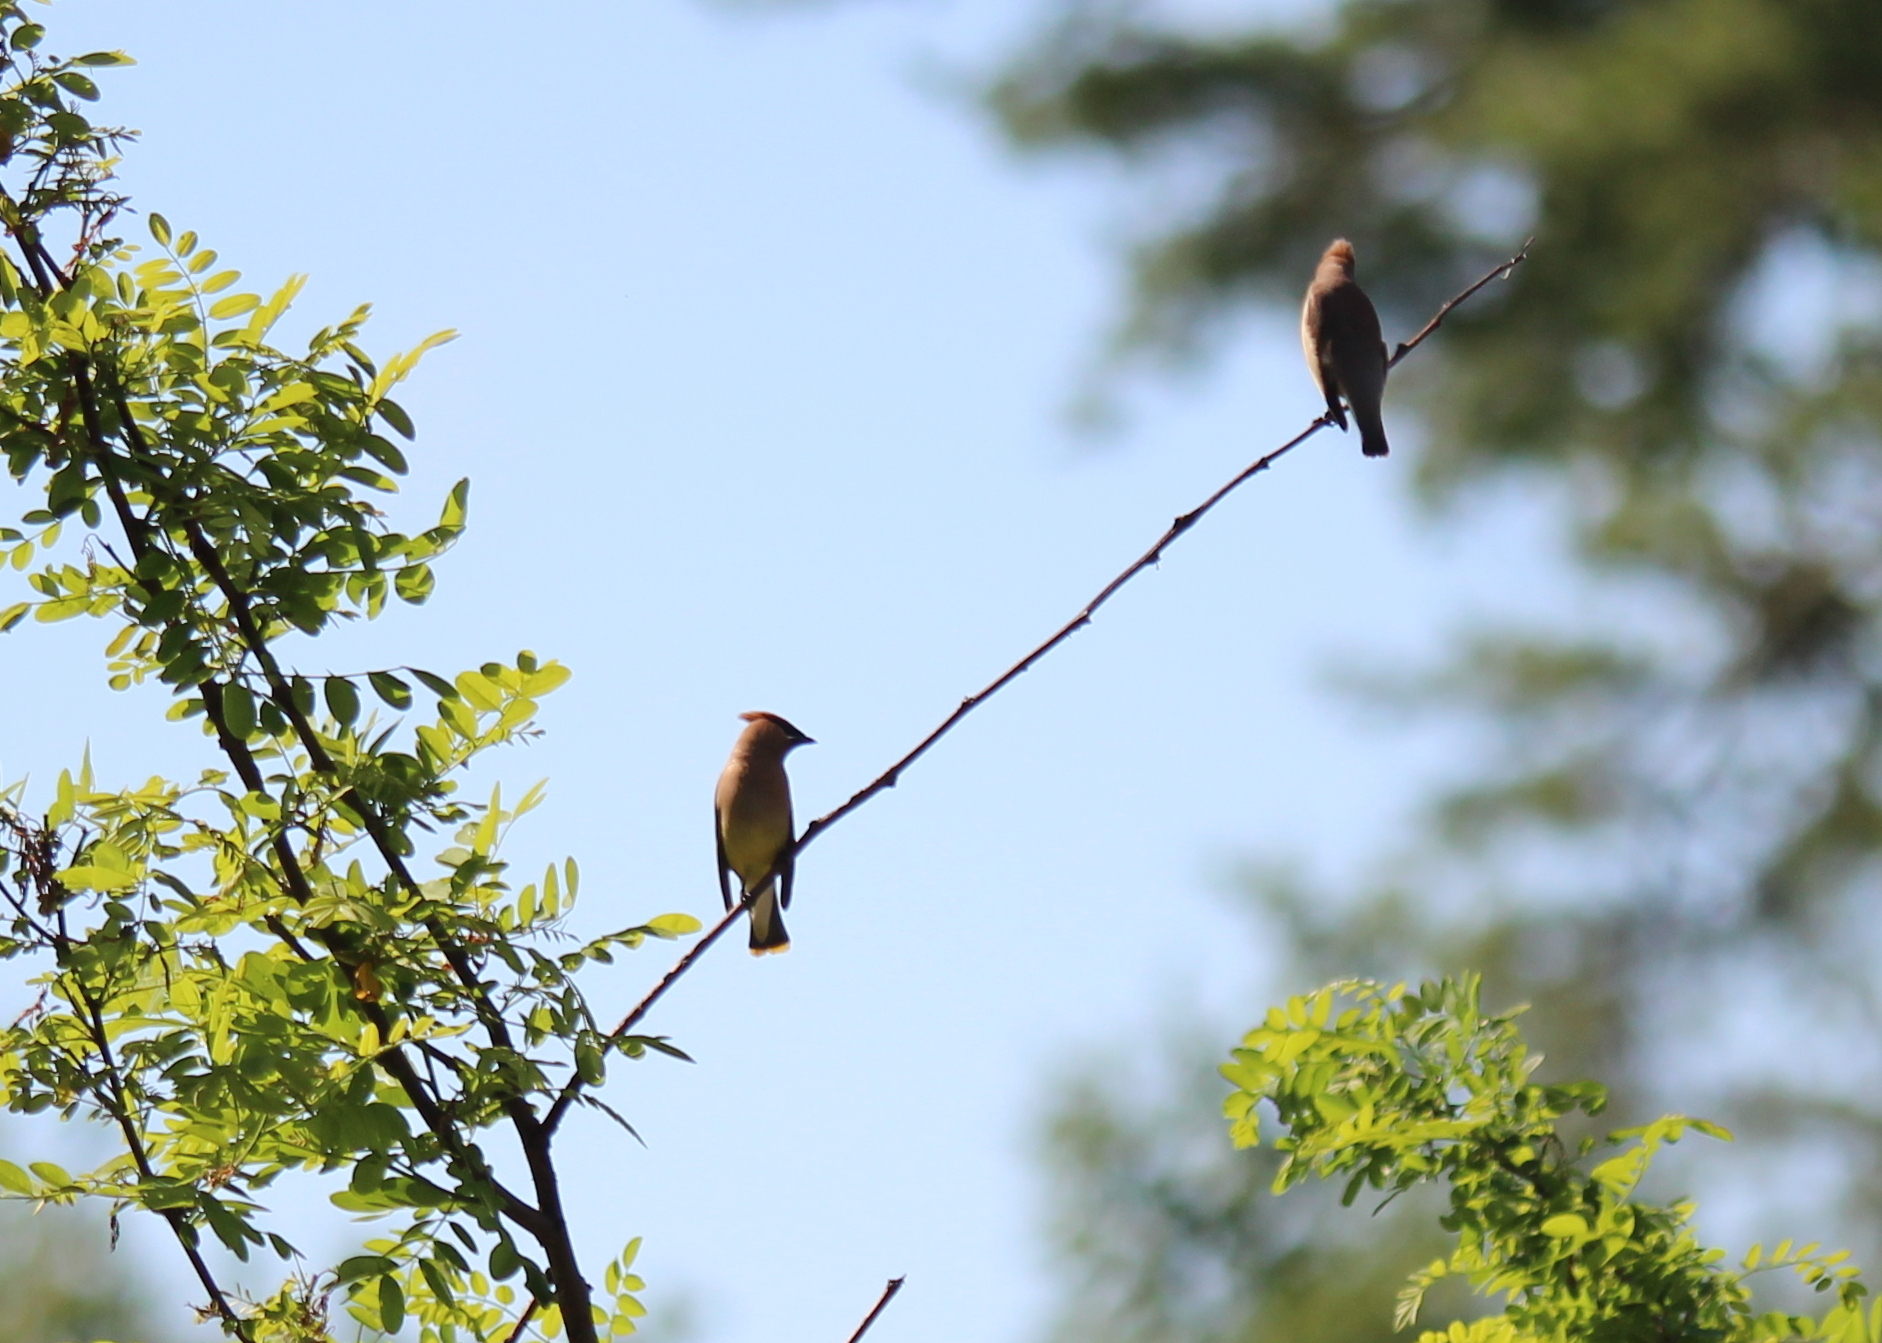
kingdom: Animalia
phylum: Chordata
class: Aves
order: Passeriformes
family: Bombycillidae
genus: Bombycilla
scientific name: Bombycilla cedrorum
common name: Cedar waxwing
